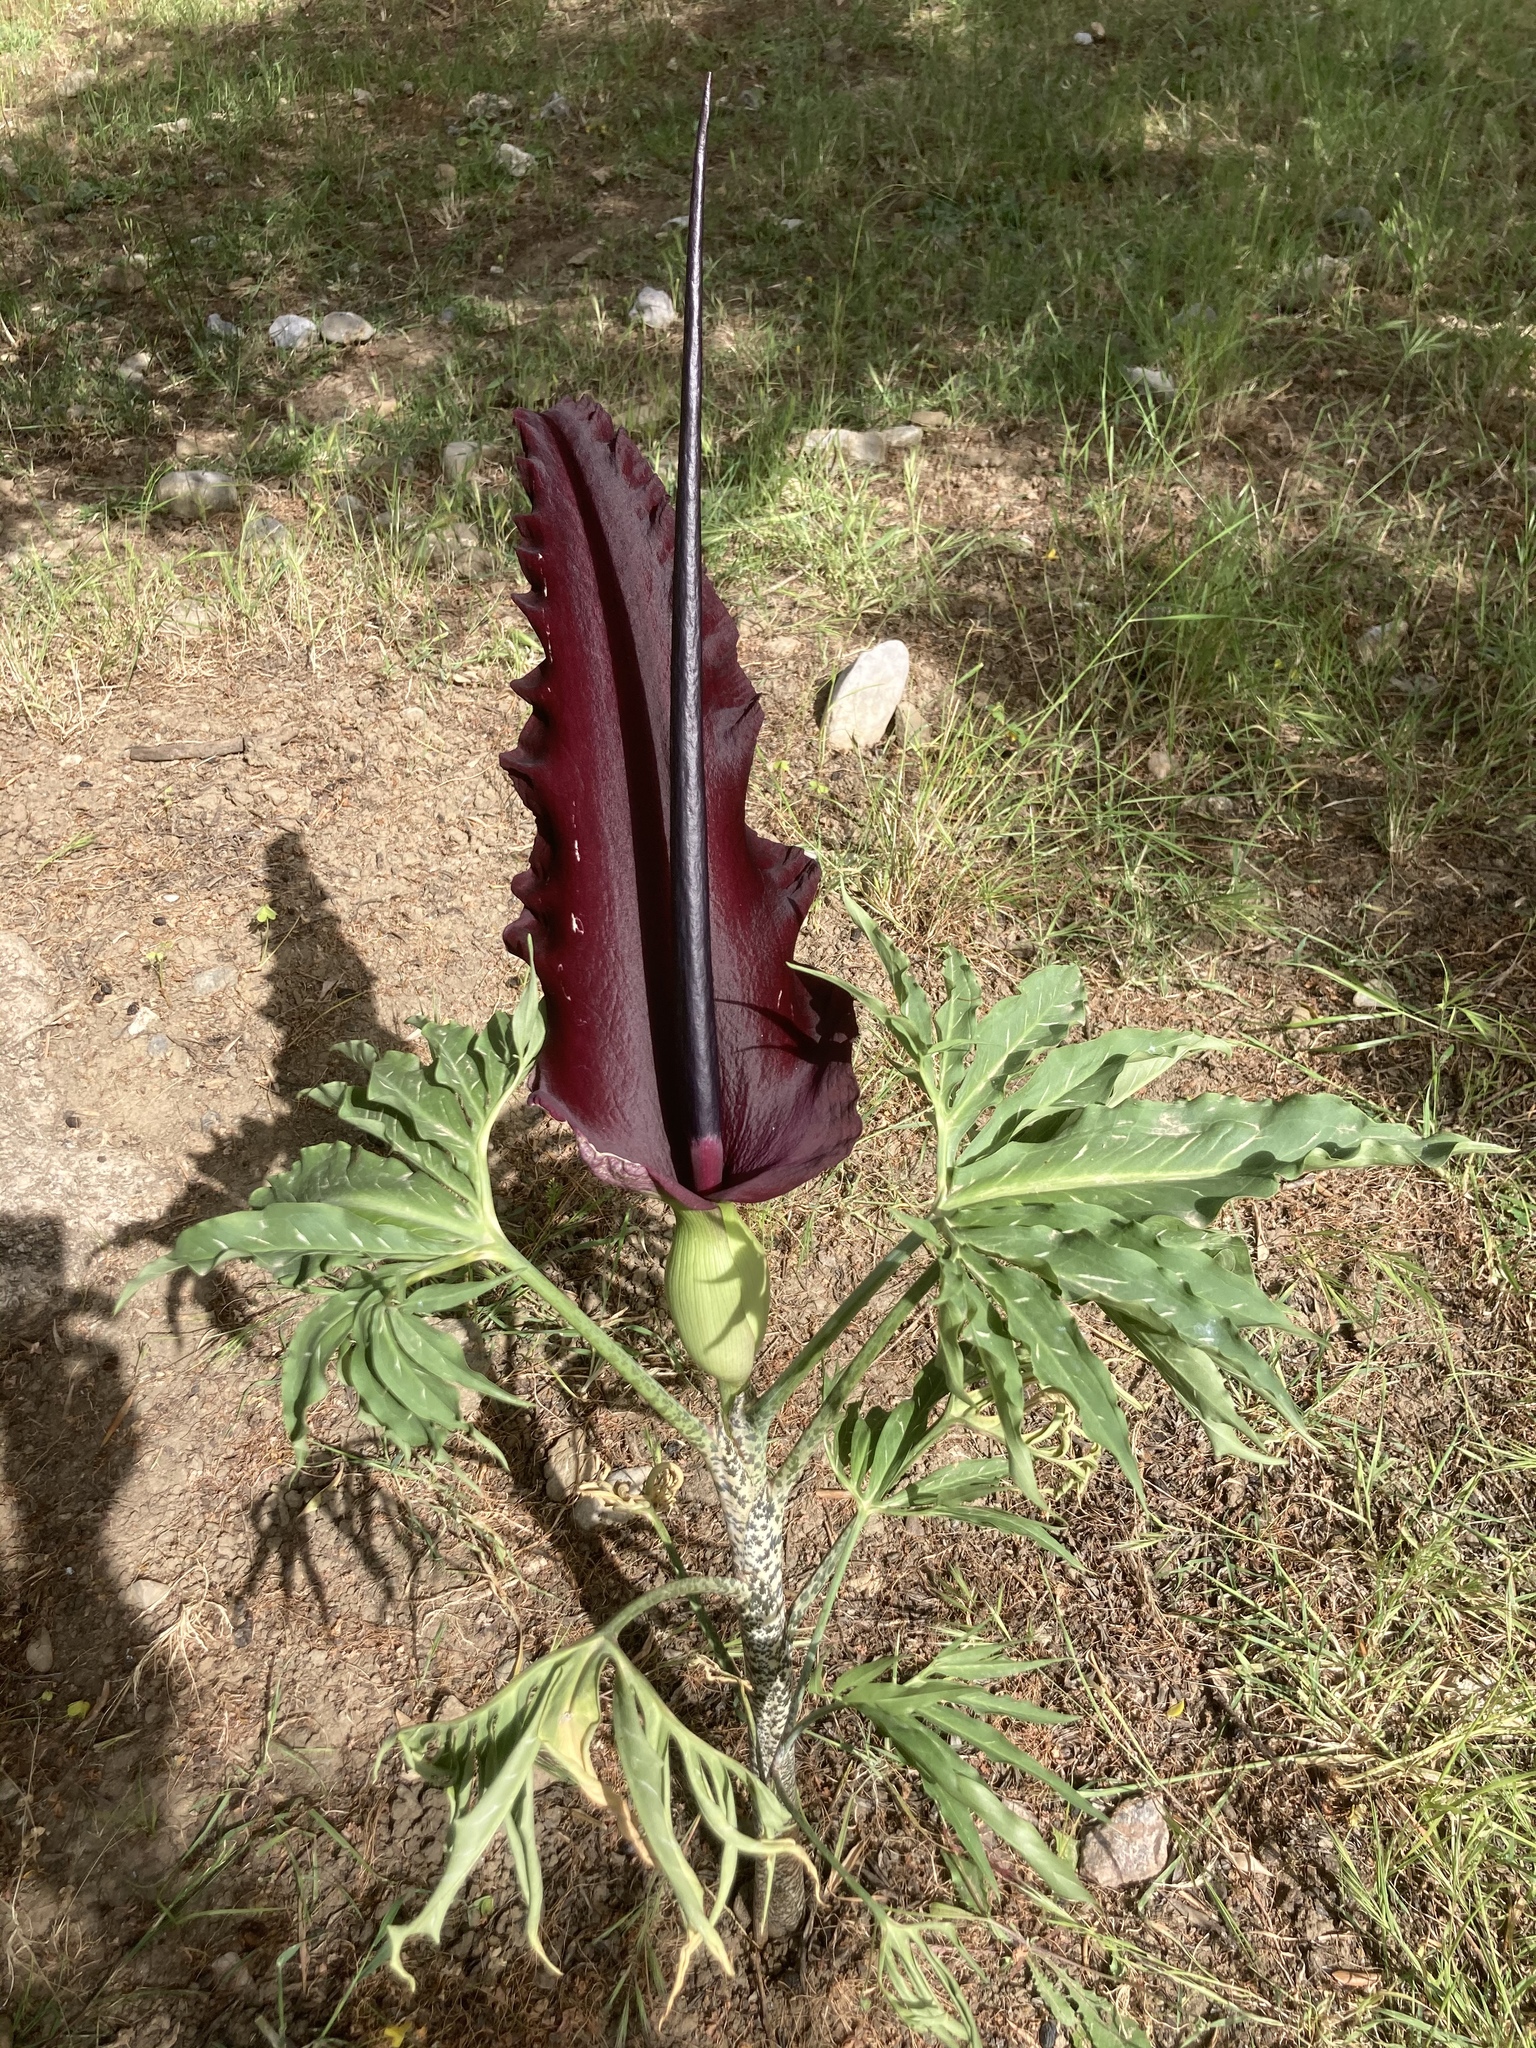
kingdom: Plantae
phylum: Tracheophyta
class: Liliopsida
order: Alismatales
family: Araceae
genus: Dracunculus
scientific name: Dracunculus vulgaris
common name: Dragon arum
